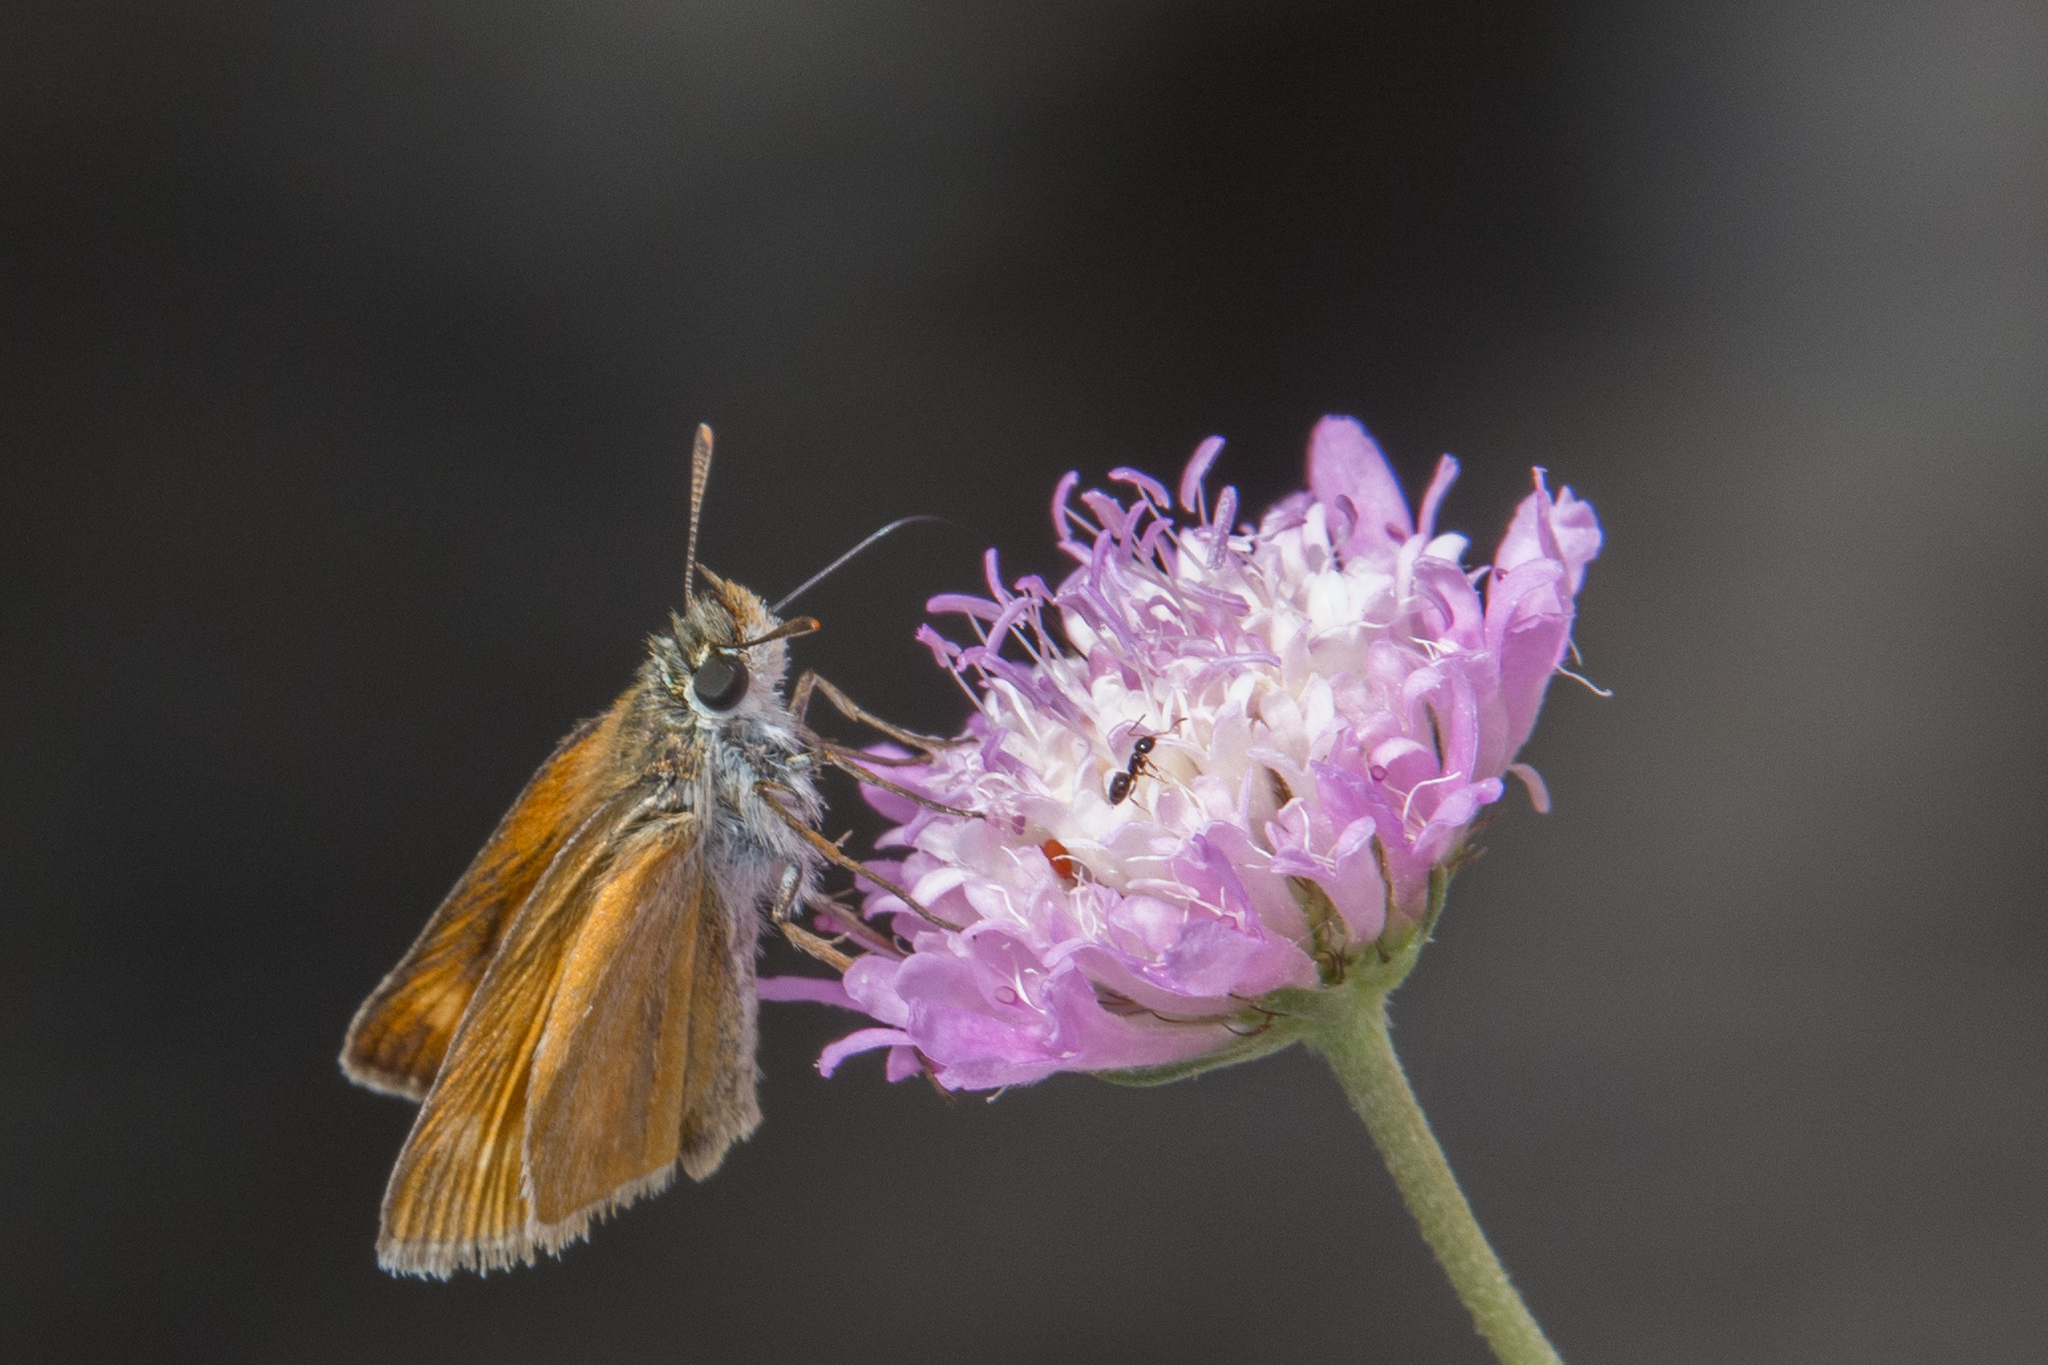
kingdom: Animalia
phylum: Arthropoda
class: Insecta
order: Lepidoptera
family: Hesperiidae
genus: Thymelicus
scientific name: Thymelicus acteon
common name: Lulworth skipper
